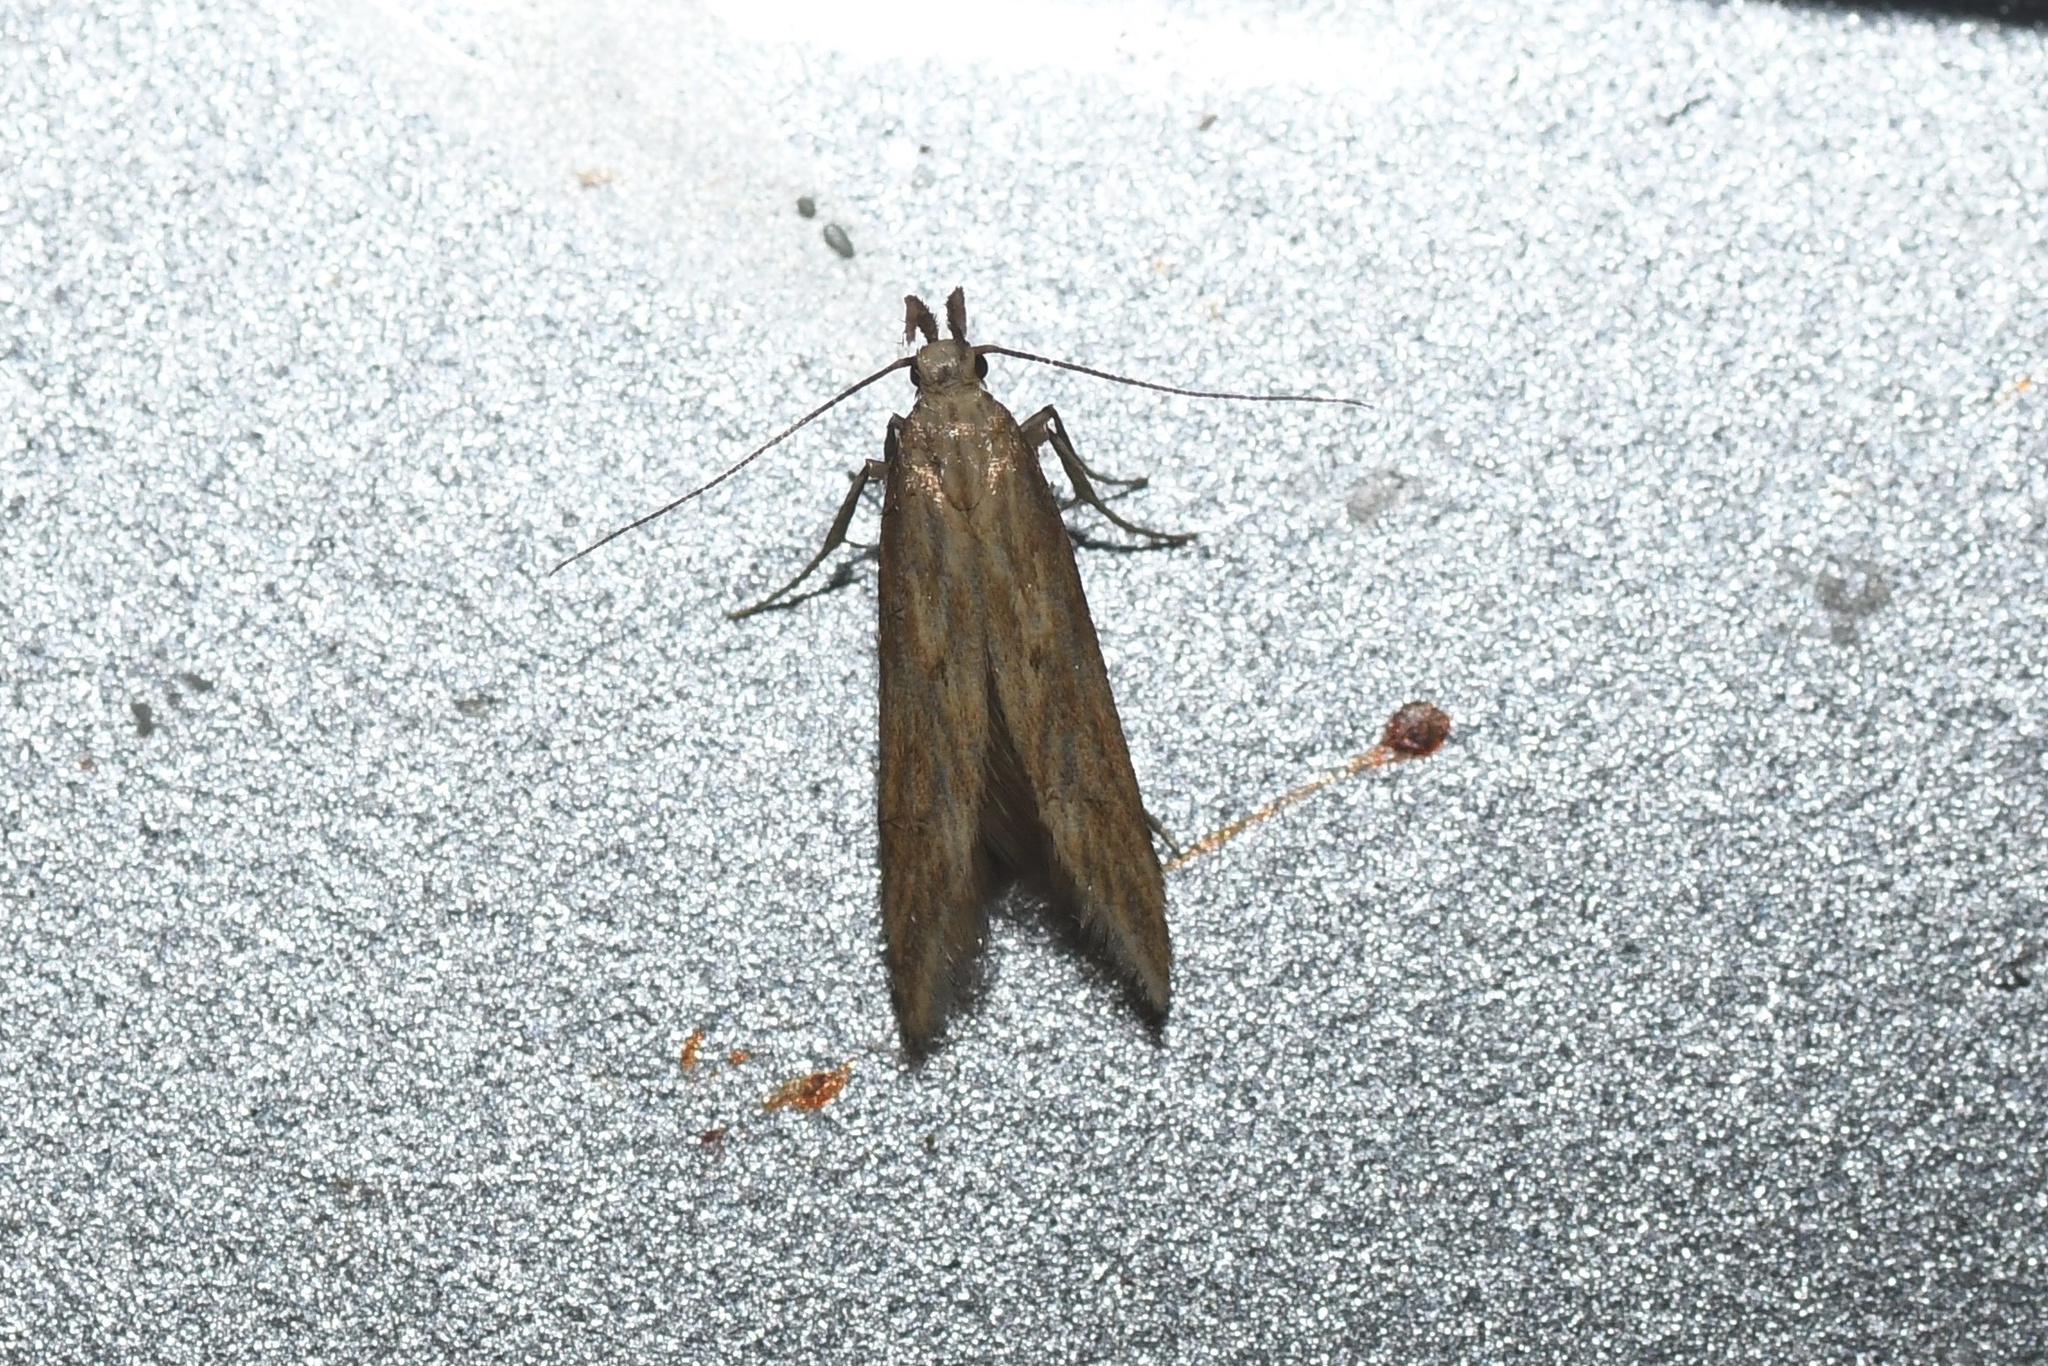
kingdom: Animalia
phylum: Arthropoda
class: Insecta
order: Lepidoptera
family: Gelechiidae
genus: Metzneria
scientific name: Metzneria lappella
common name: Burdock neb
